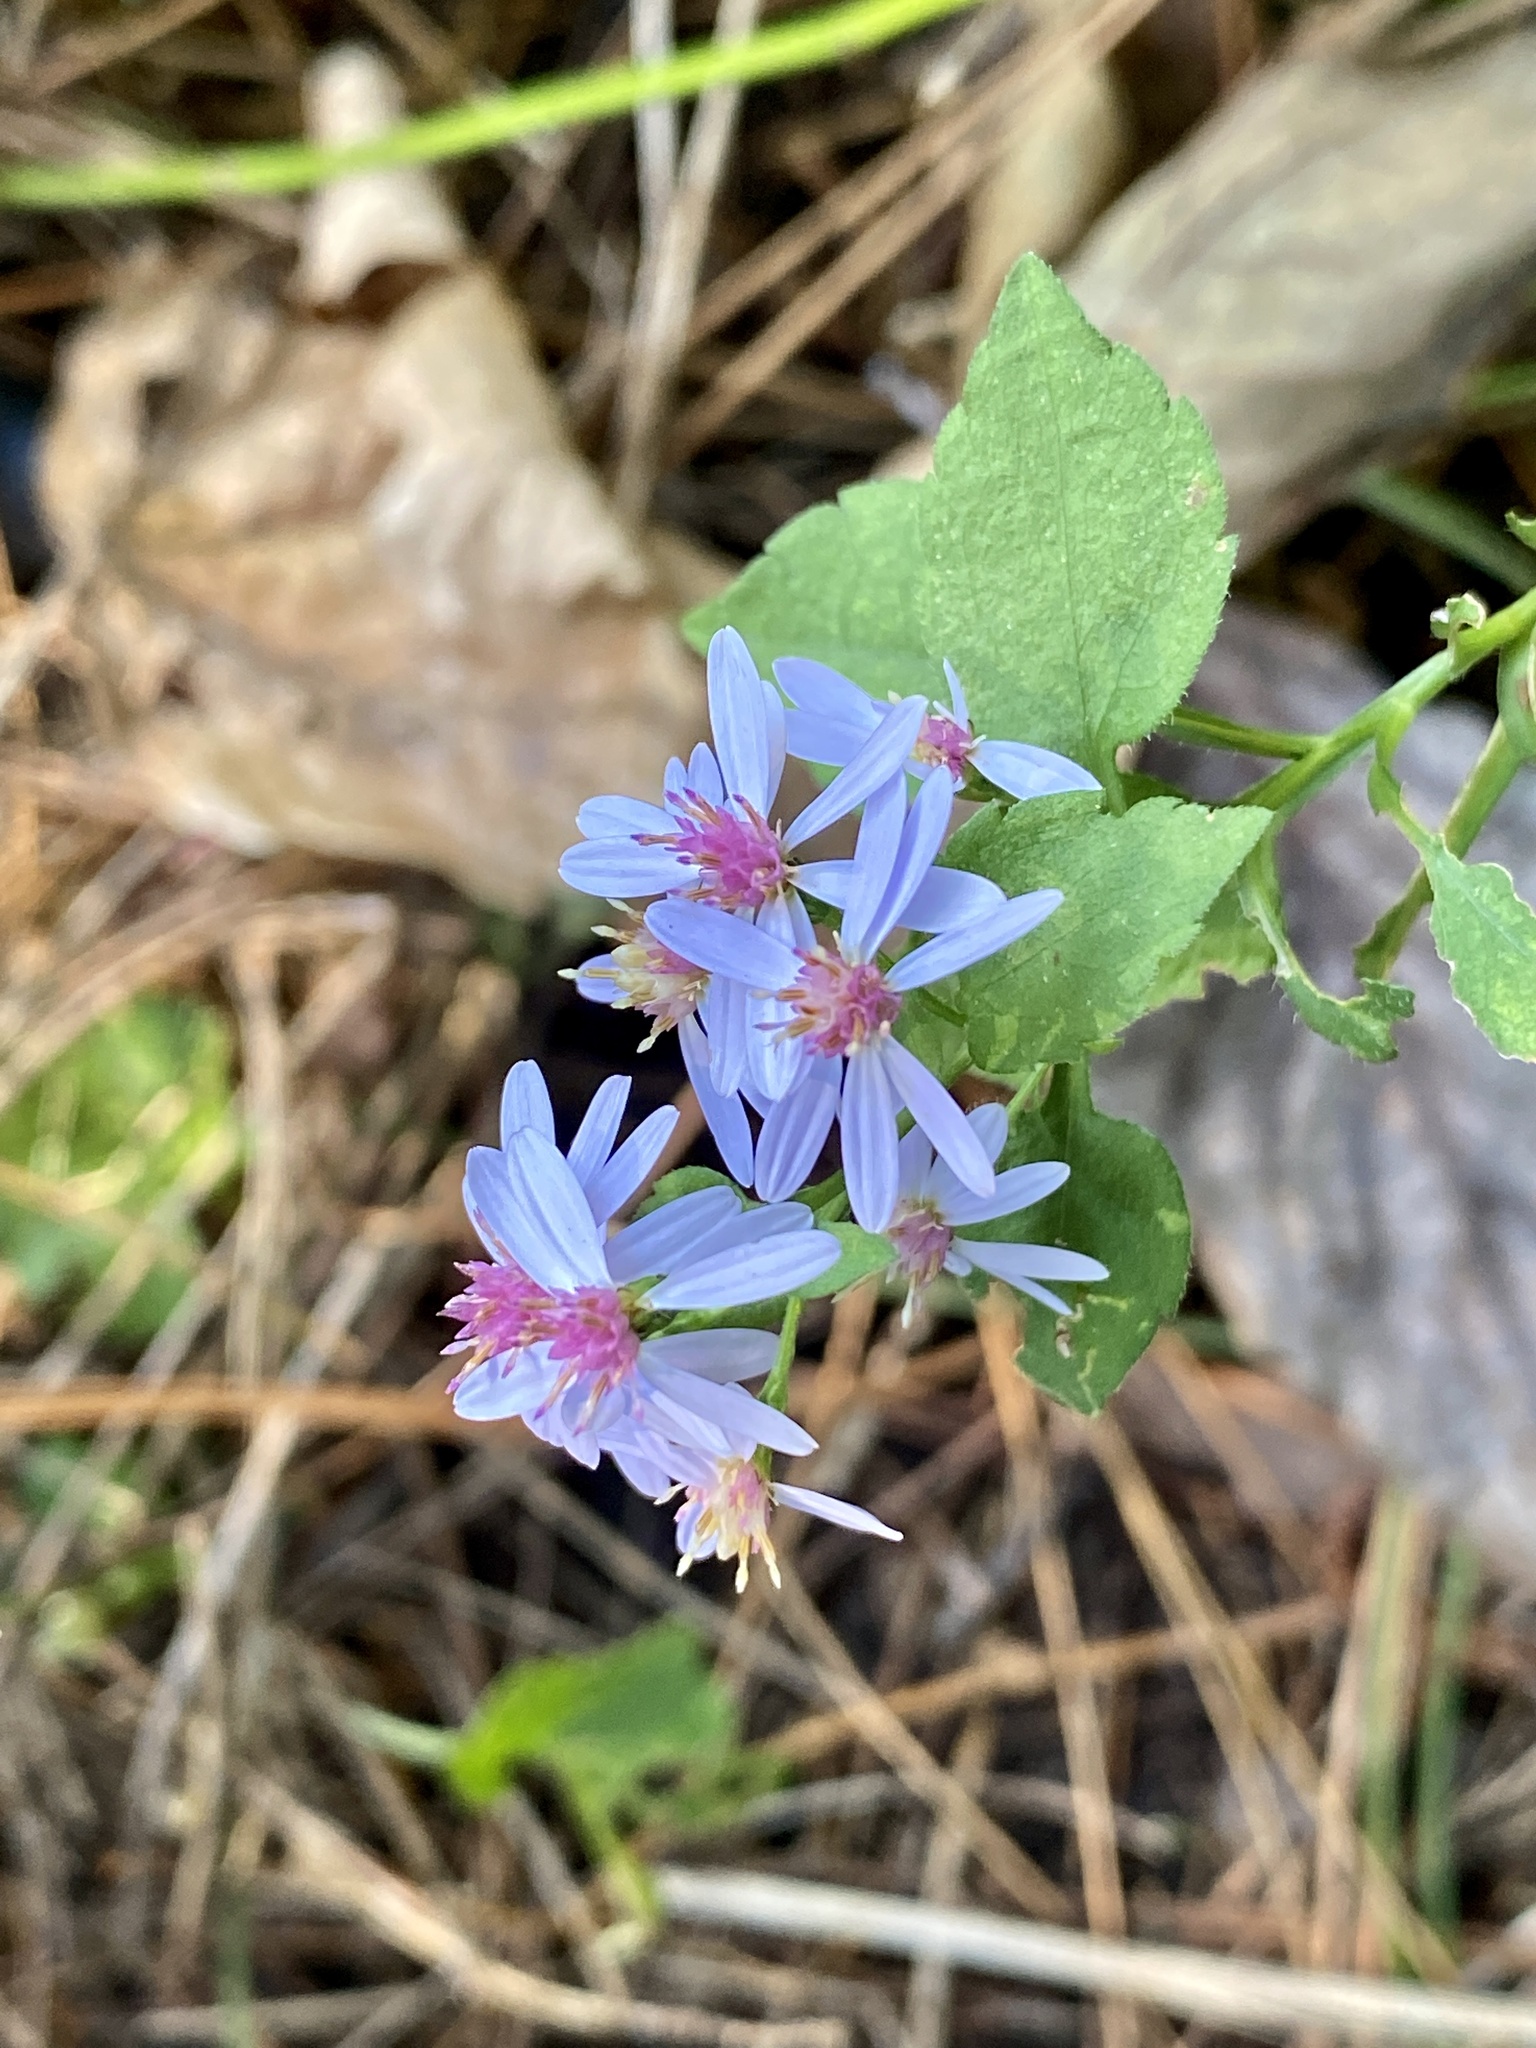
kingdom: Plantae
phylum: Tracheophyta
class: Magnoliopsida
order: Asterales
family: Asteraceae
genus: Symphyotrichum
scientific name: Symphyotrichum cordifolium
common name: Beeweed
